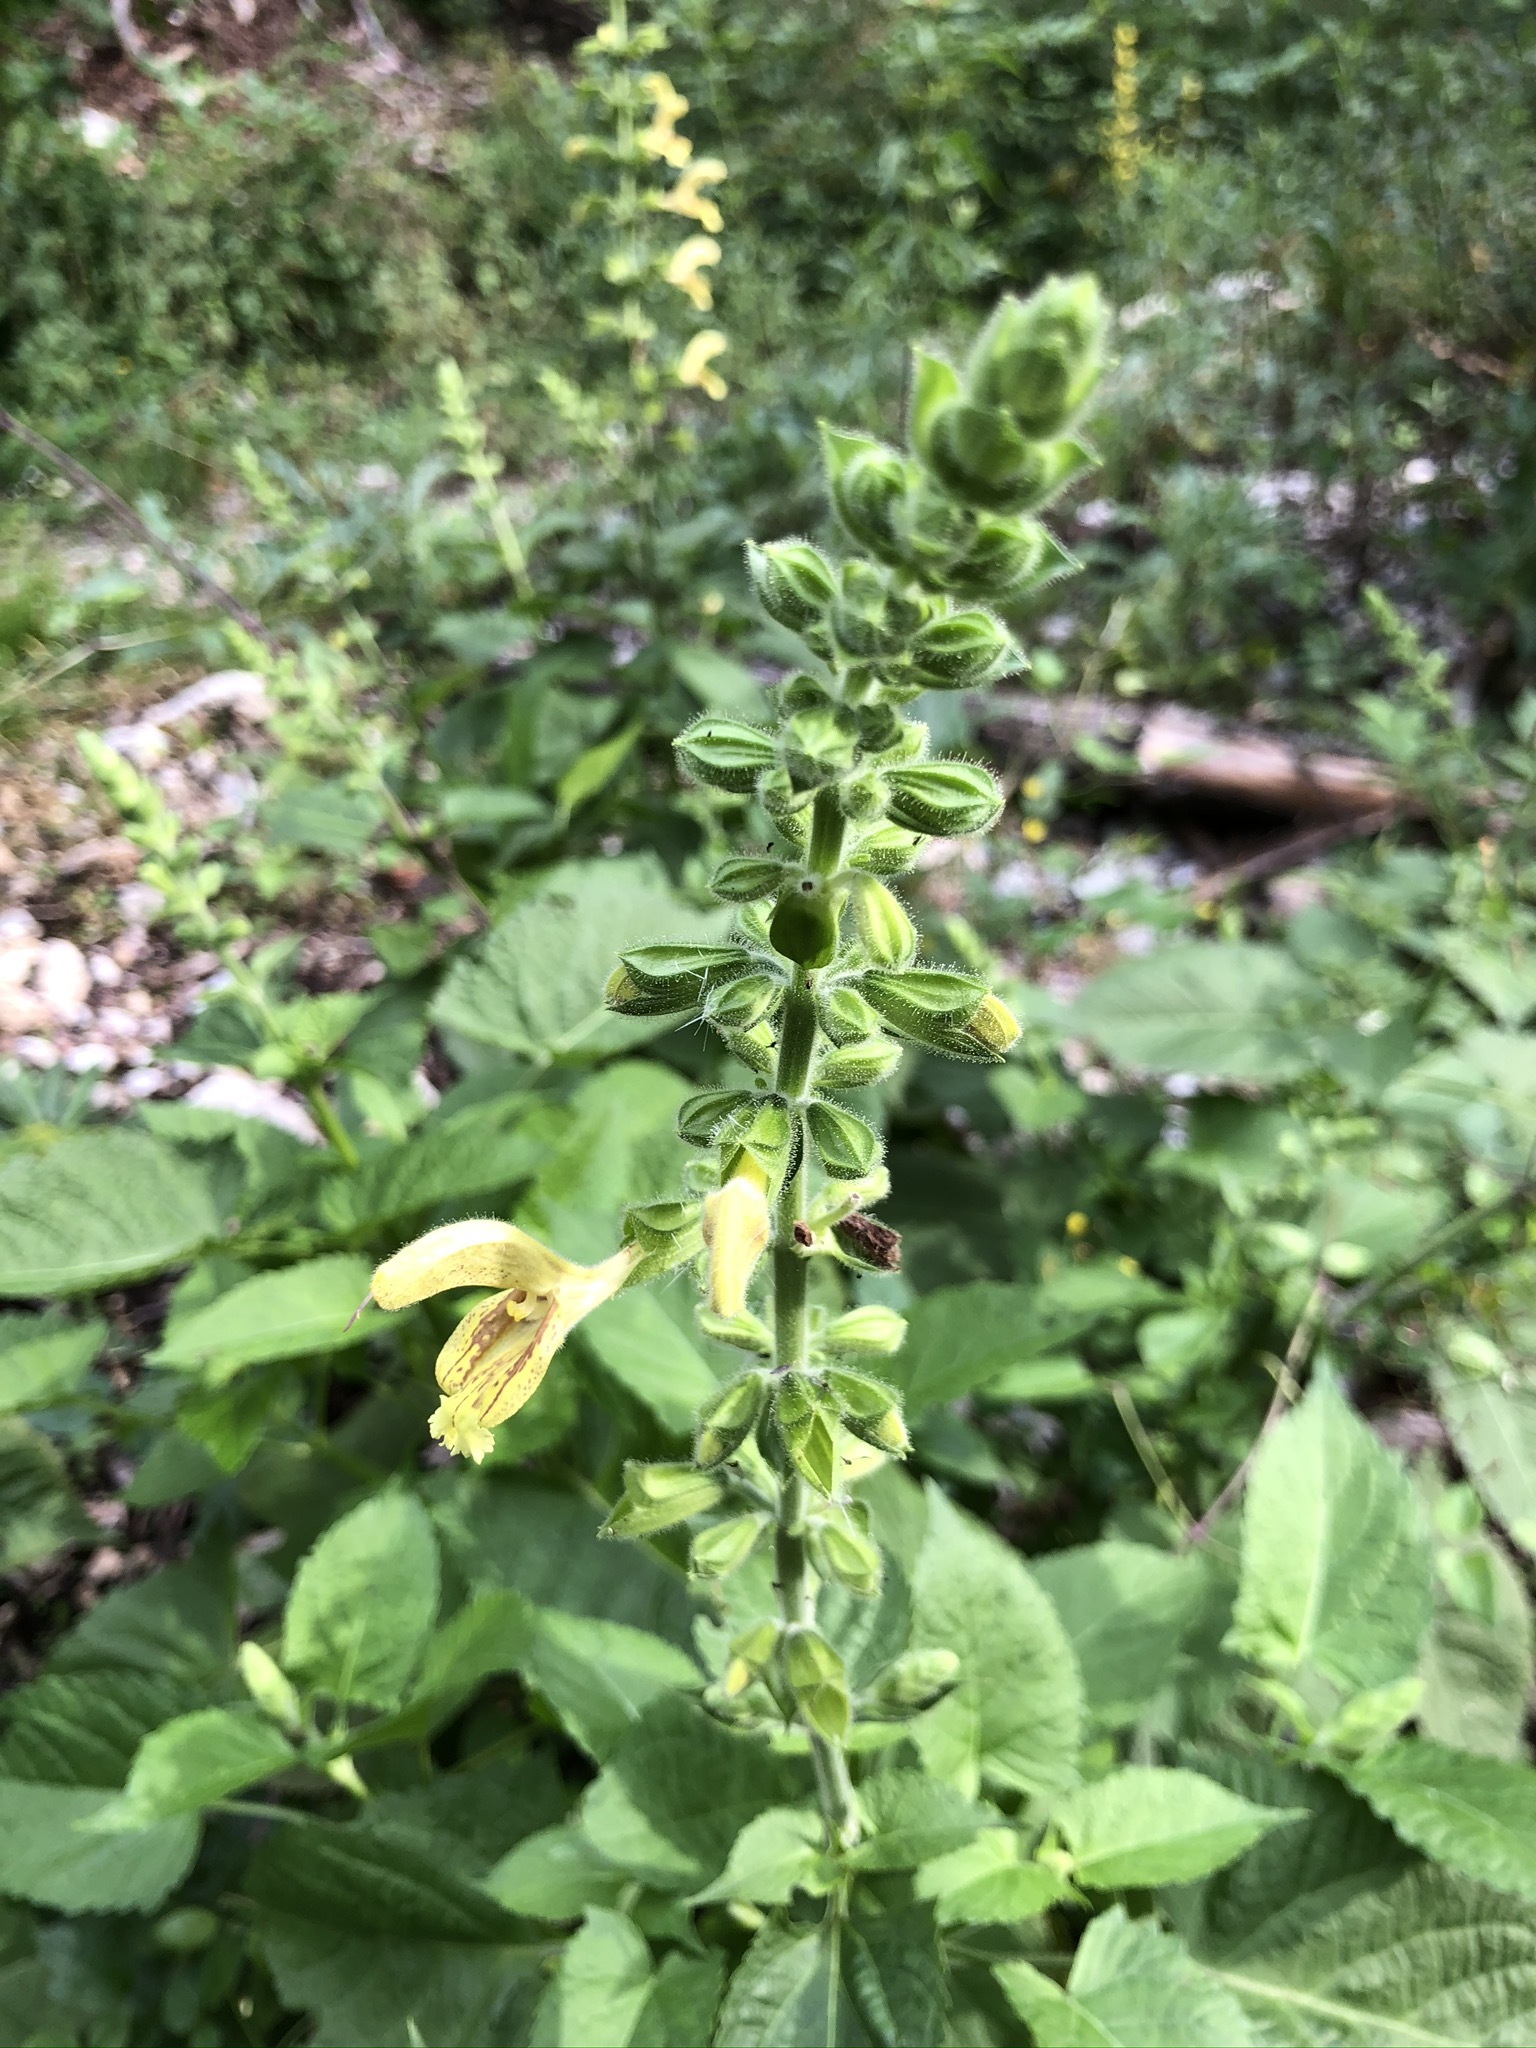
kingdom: Plantae
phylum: Tracheophyta
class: Magnoliopsida
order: Lamiales
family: Lamiaceae
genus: Salvia
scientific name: Salvia glutinosa
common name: Sticky clary
